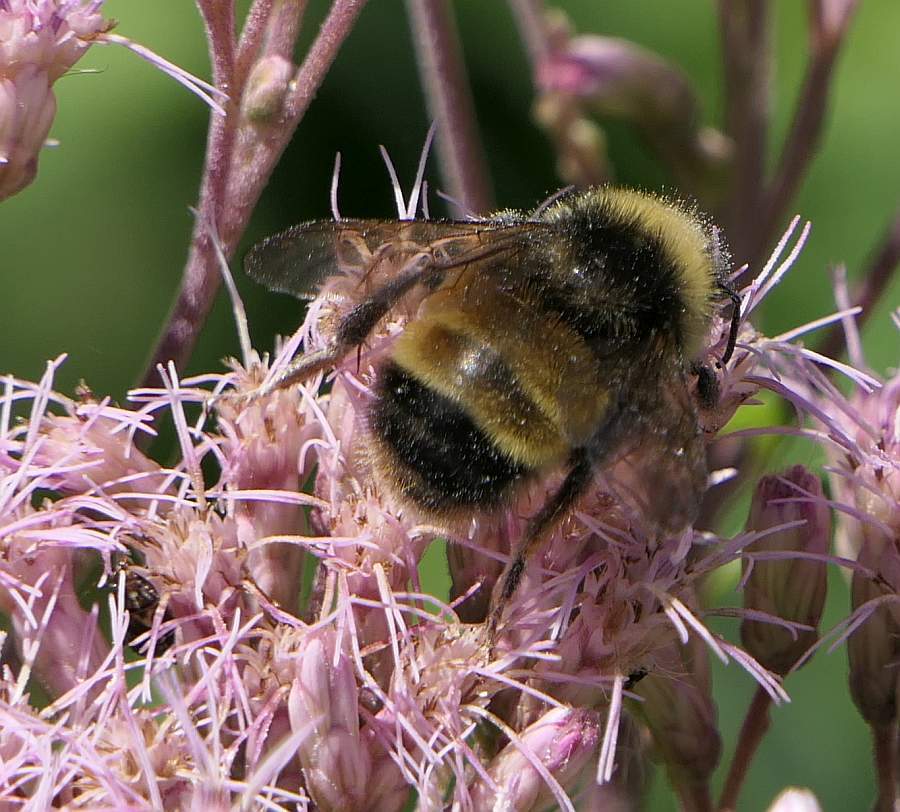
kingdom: Animalia
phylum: Arthropoda
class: Insecta
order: Hymenoptera
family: Apidae
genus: Bombus
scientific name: Bombus terricola
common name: Yellow-banded bumble bee
